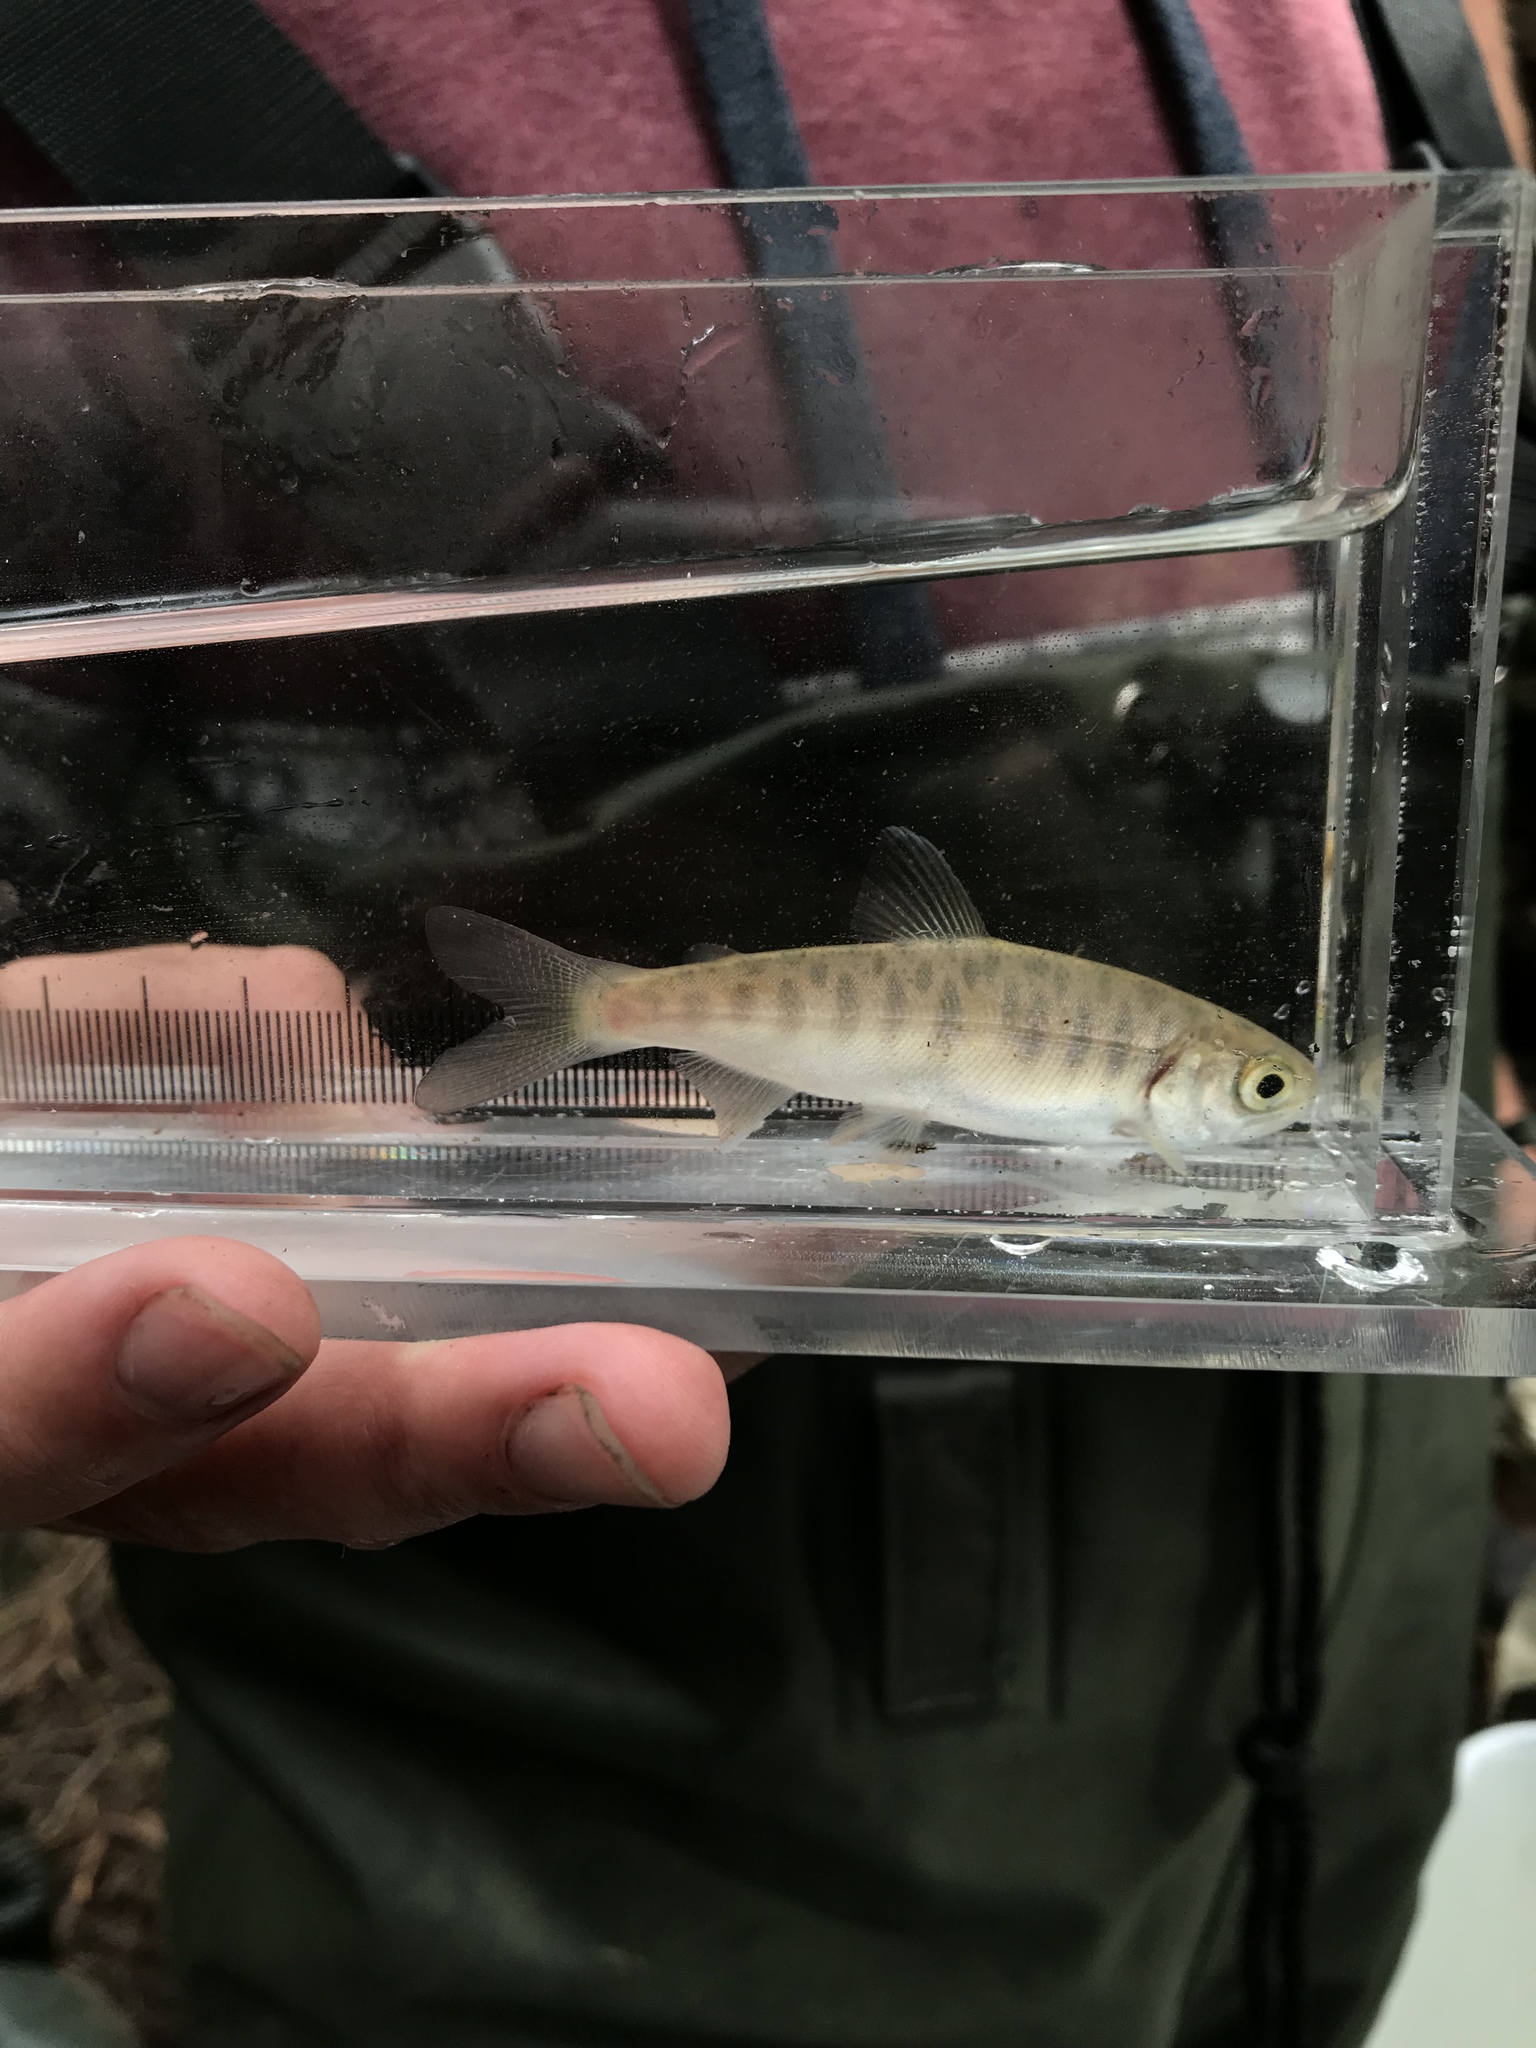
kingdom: Animalia
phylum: Chordata
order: Salmoniformes
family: Salmonidae
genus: Oncorhynchus
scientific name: Oncorhynchus kisutch
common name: Coho salmon
